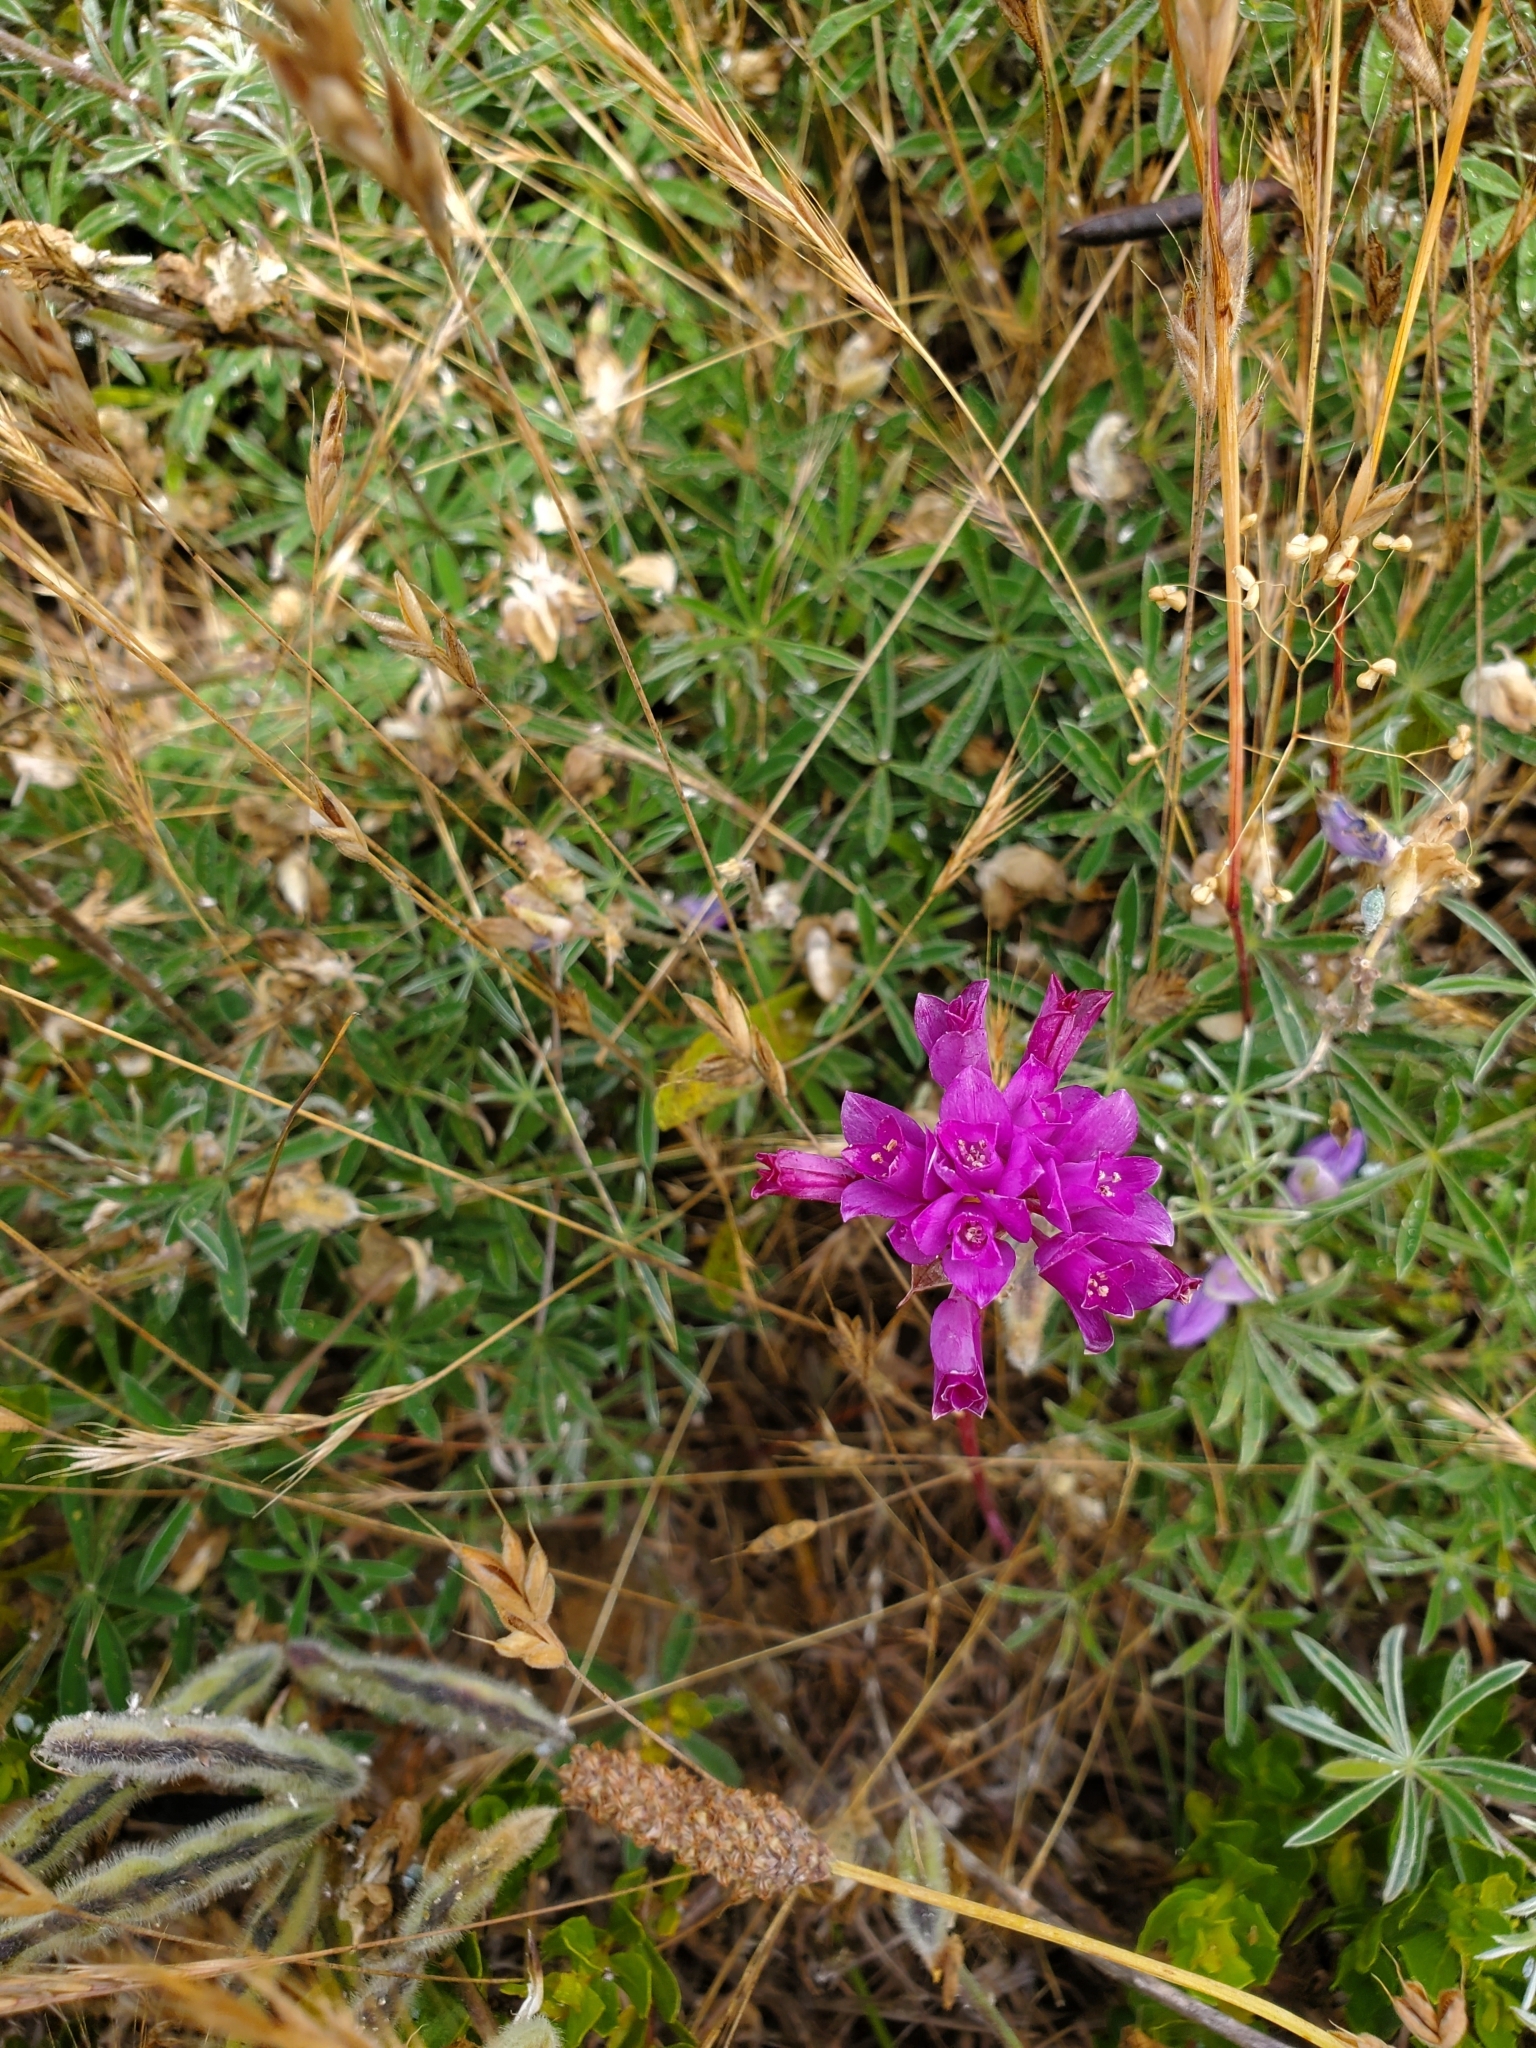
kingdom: Plantae
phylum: Tracheophyta
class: Liliopsida
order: Asparagales
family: Amaryllidaceae
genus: Allium
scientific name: Allium dichlamydeum
